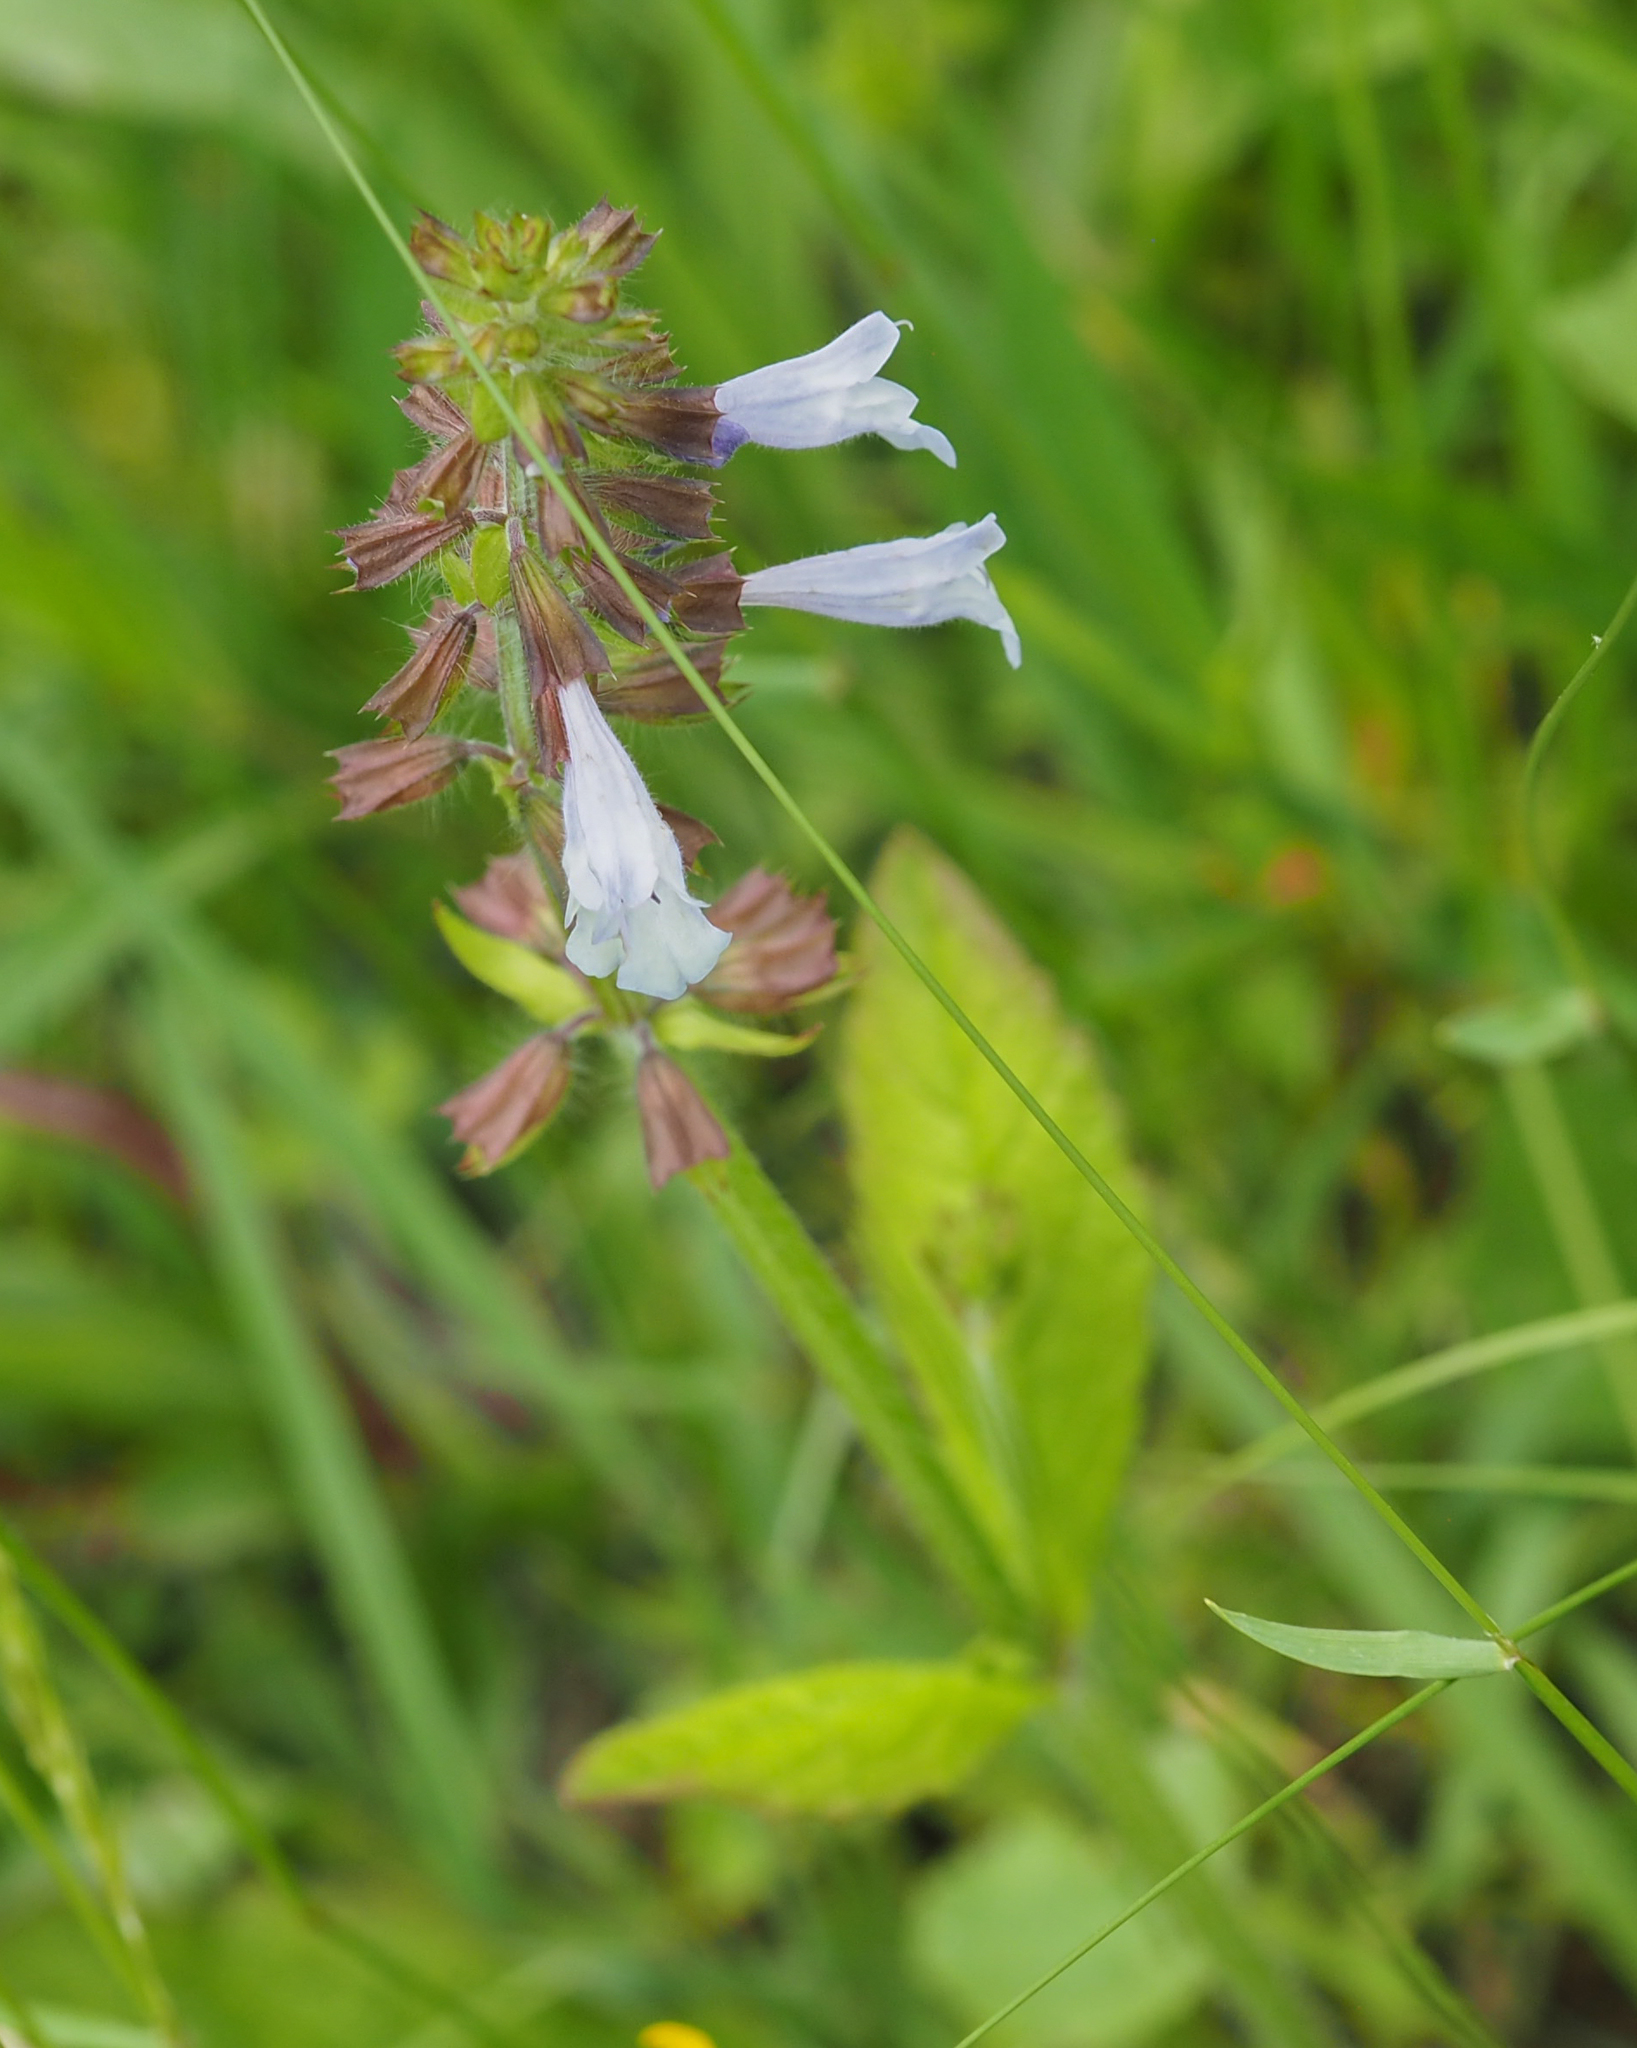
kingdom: Plantae
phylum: Tracheophyta
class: Magnoliopsida
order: Lamiales
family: Lamiaceae
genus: Salvia
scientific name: Salvia lyrata
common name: Cancerweed
